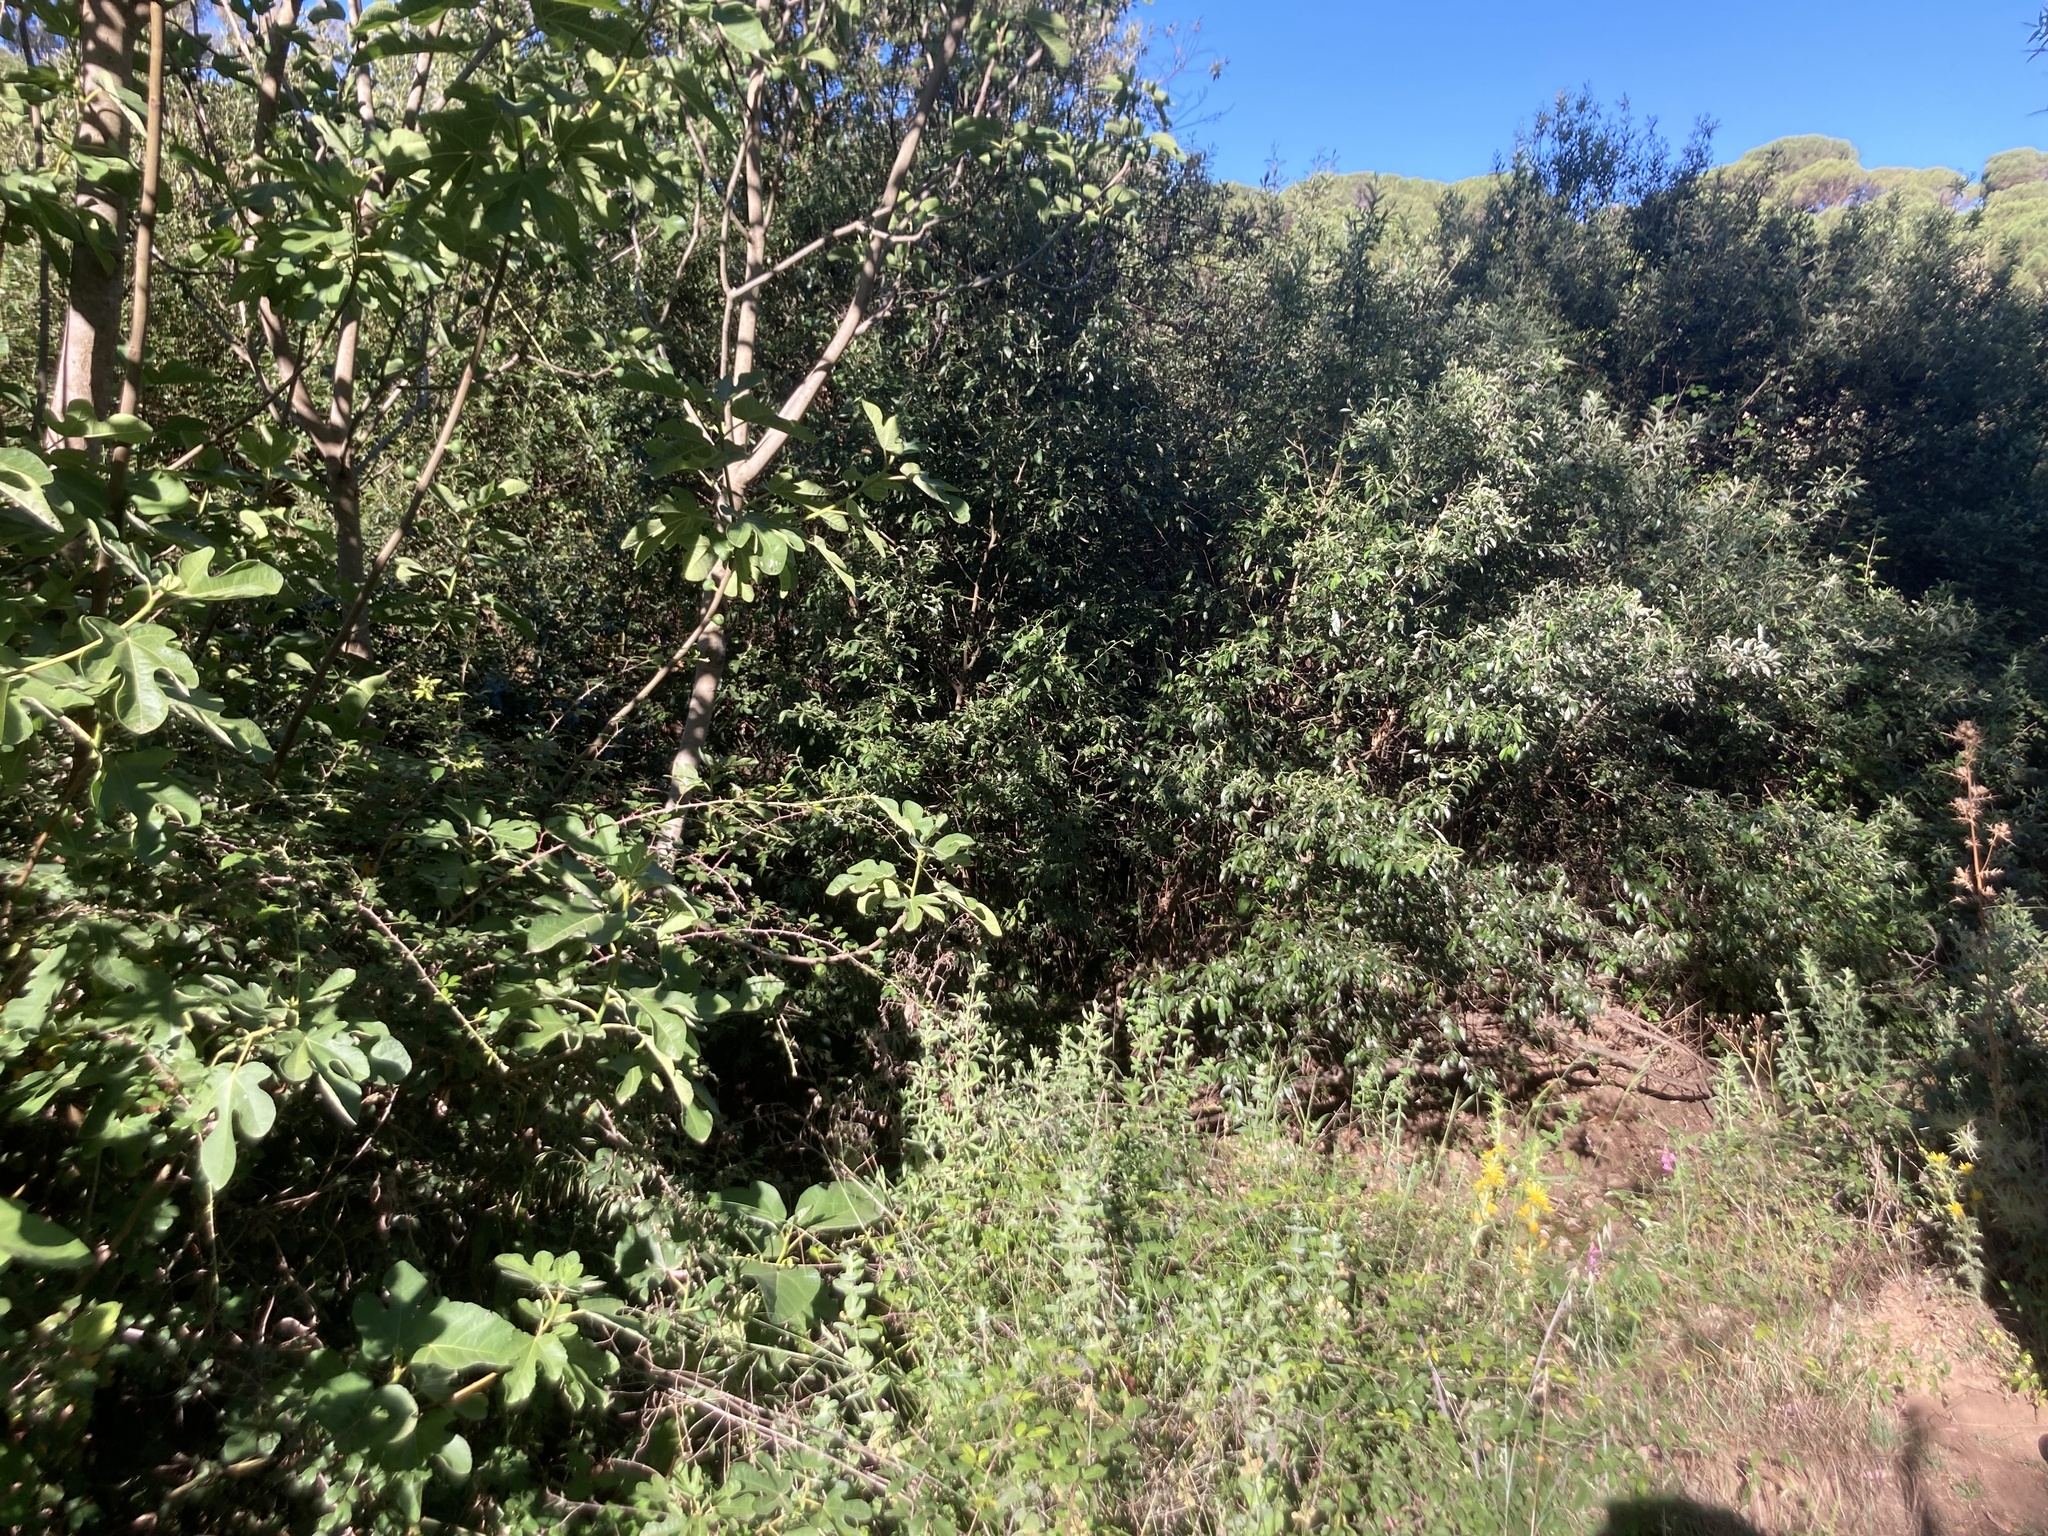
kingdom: Plantae
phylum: Tracheophyta
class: Magnoliopsida
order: Rosales
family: Moraceae
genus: Ficus
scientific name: Ficus carica
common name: Fig
